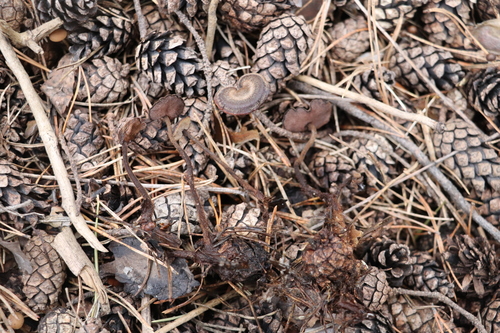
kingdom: Fungi
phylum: Basidiomycota
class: Agaricomycetes
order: Russulales
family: Auriscalpiaceae
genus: Auriscalpium
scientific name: Auriscalpium vulgare
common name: Earpick fungus
